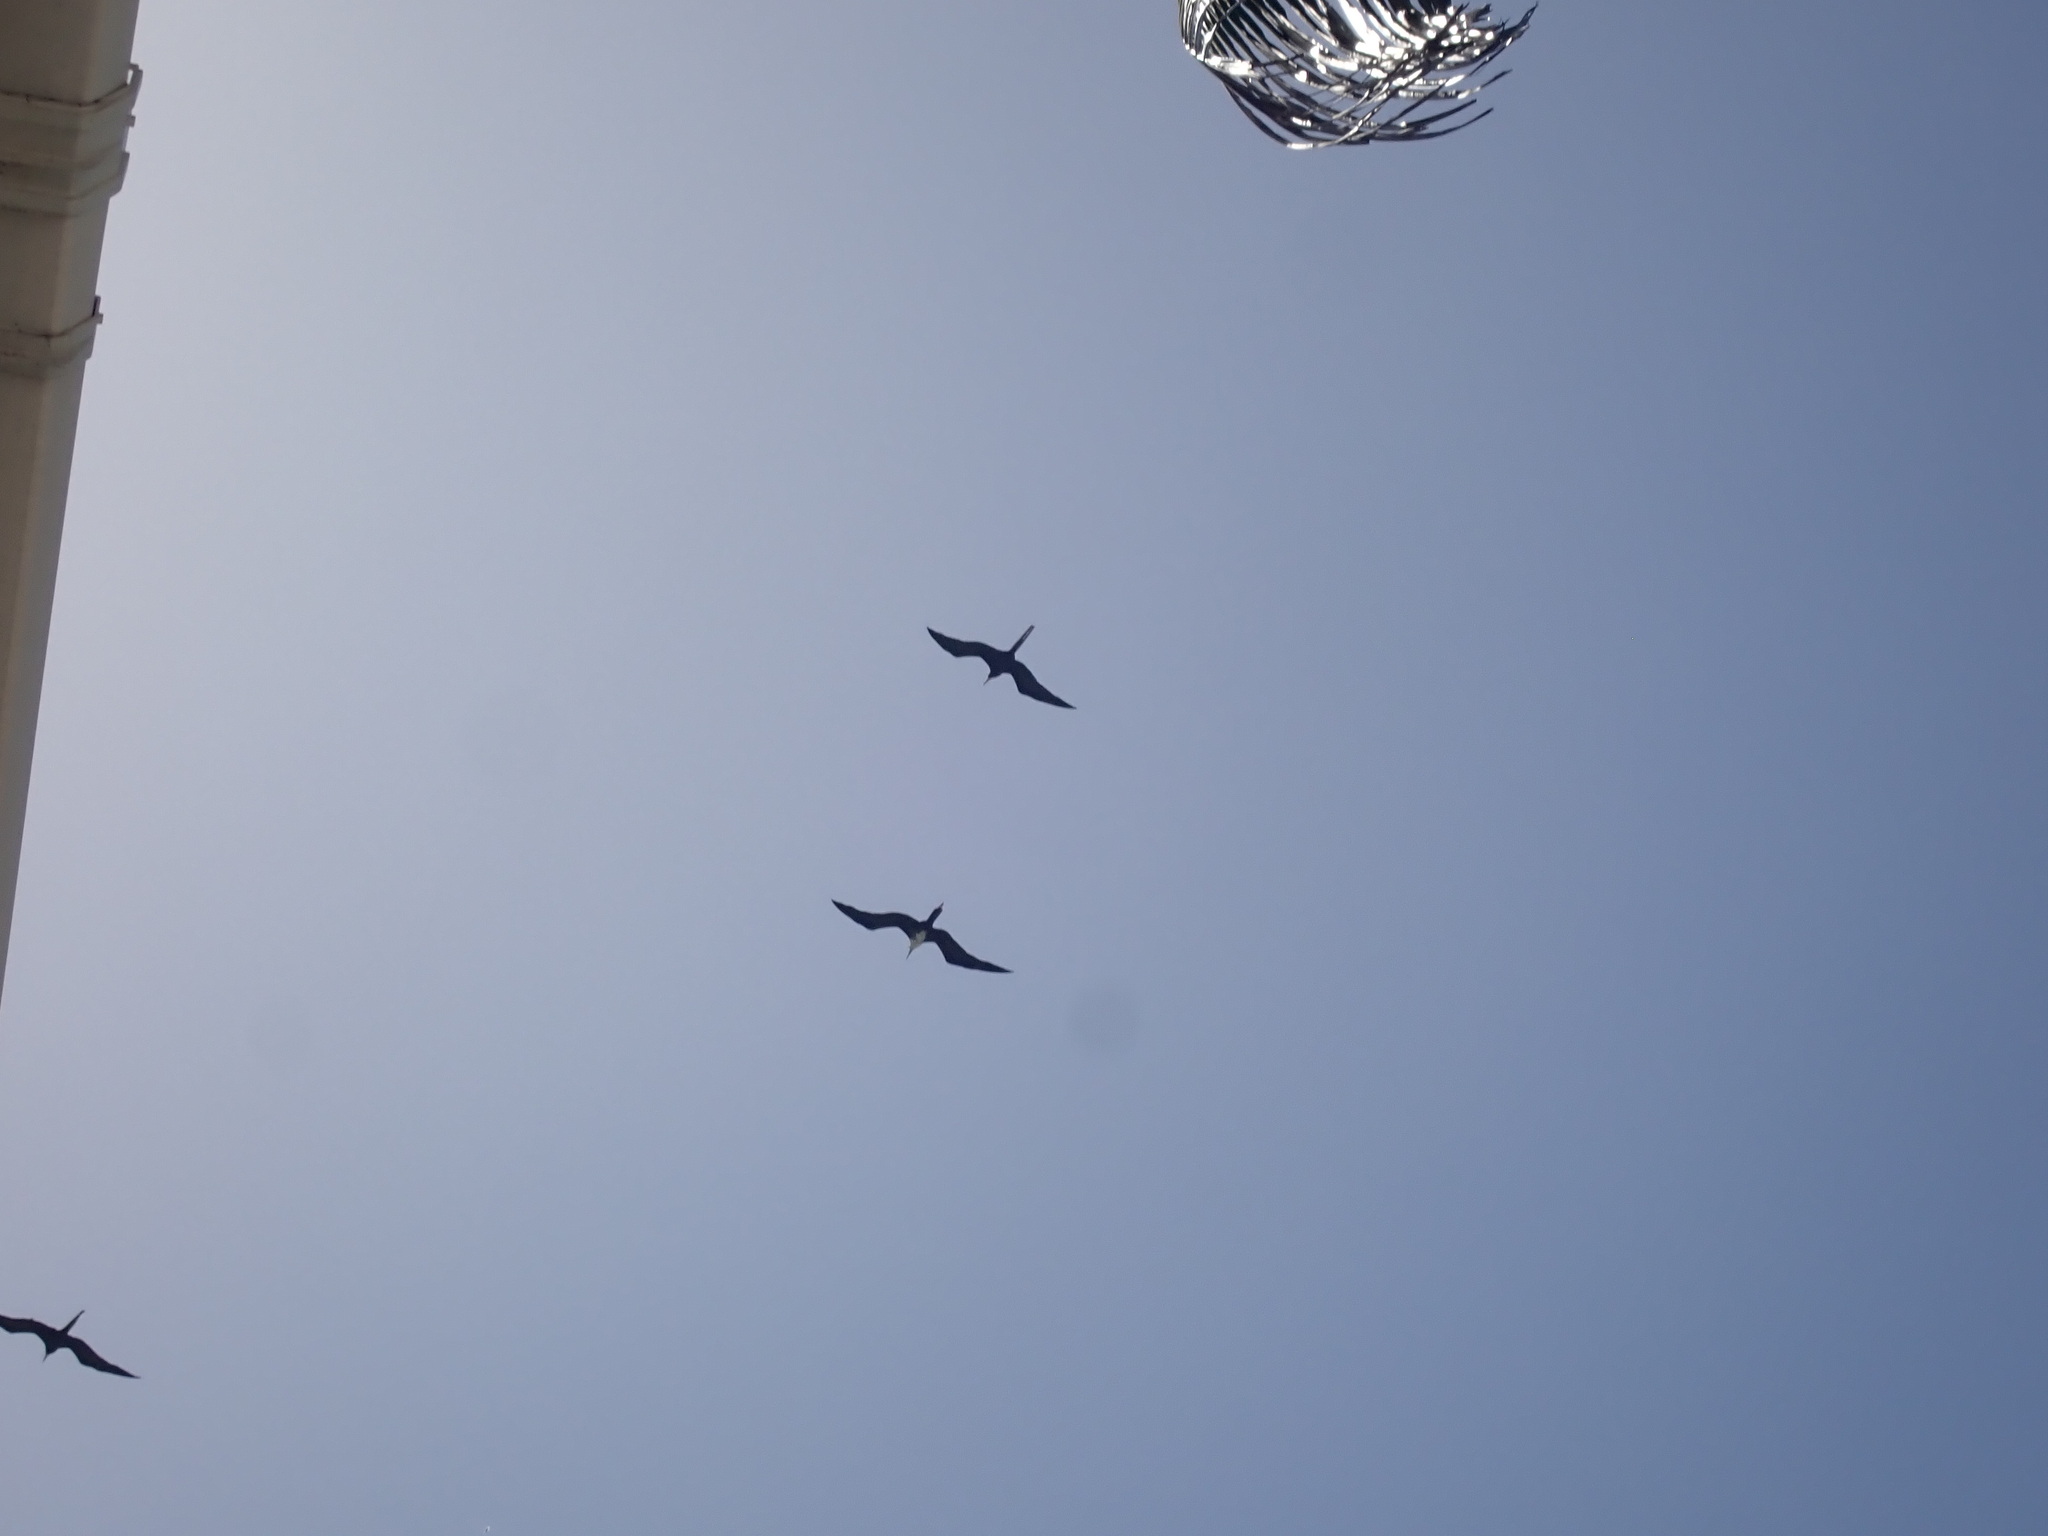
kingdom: Animalia
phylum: Chordata
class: Aves
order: Suliformes
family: Fregatidae
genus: Fregata
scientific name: Fregata magnificens
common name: Magnificent frigatebird
